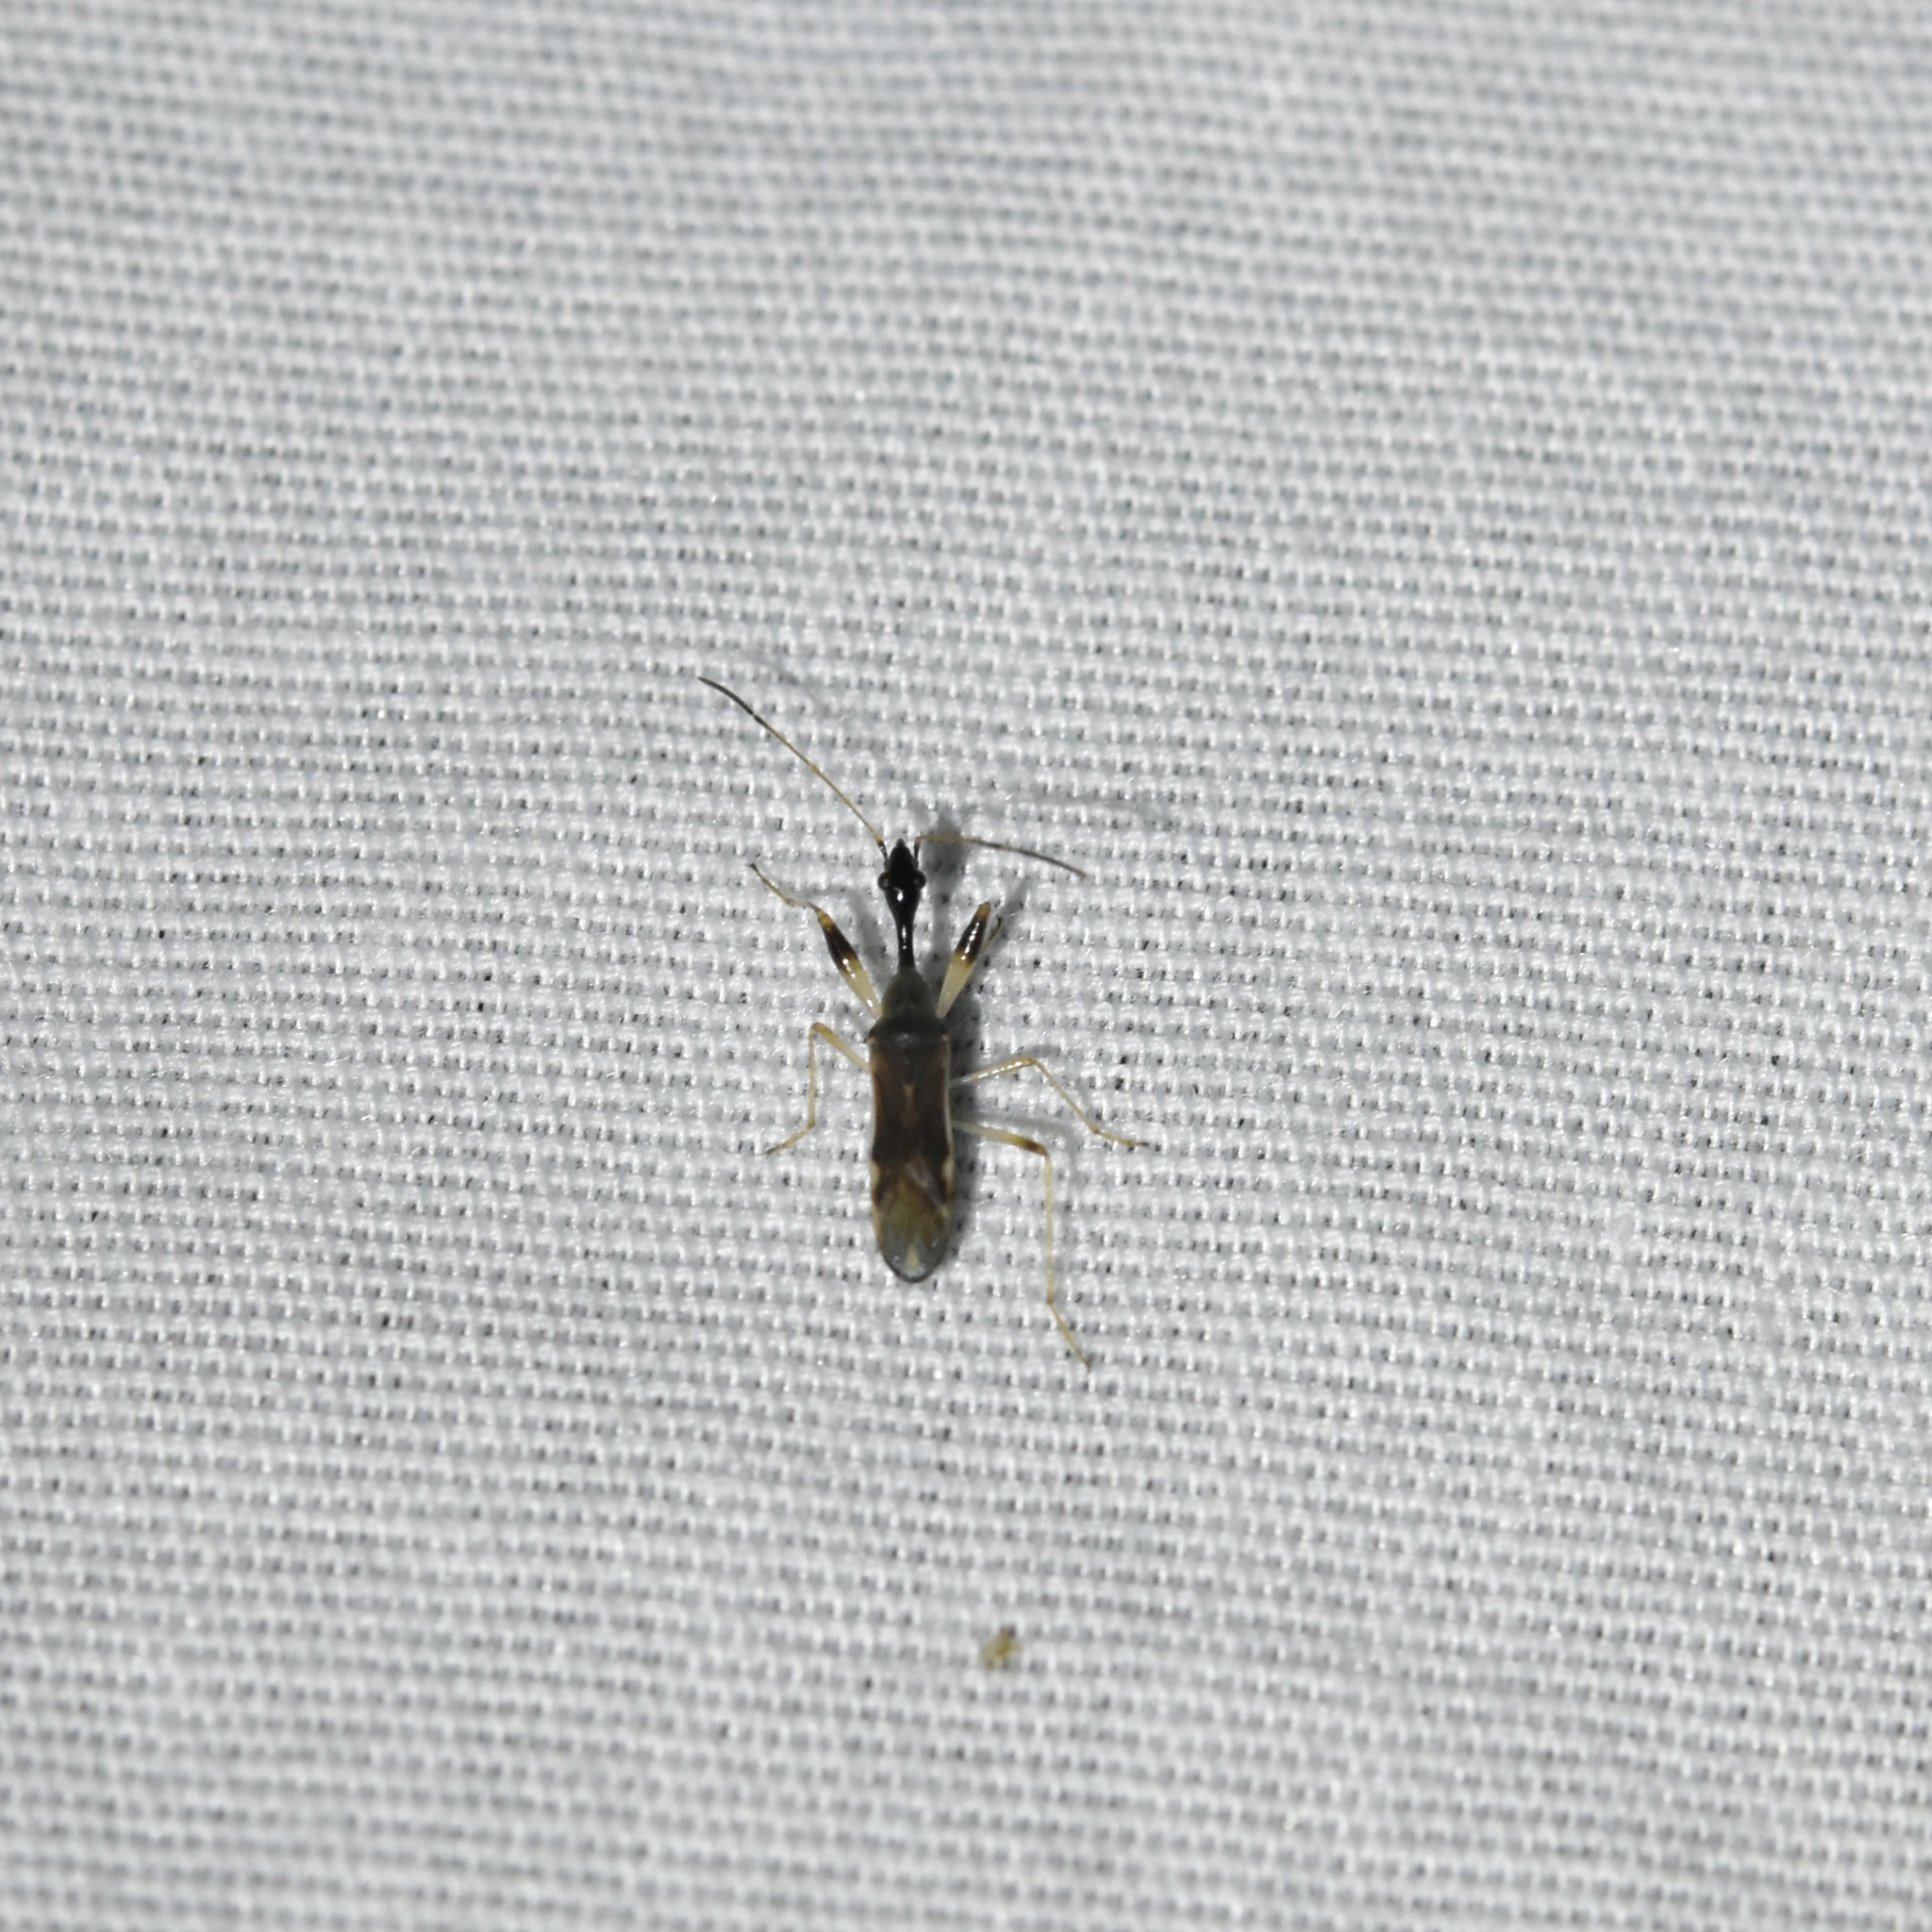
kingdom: Animalia
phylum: Arthropoda
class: Insecta
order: Hemiptera
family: Rhyparochromidae
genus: Myodocha
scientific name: Myodocha serripes
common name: Long-necked seed bug
